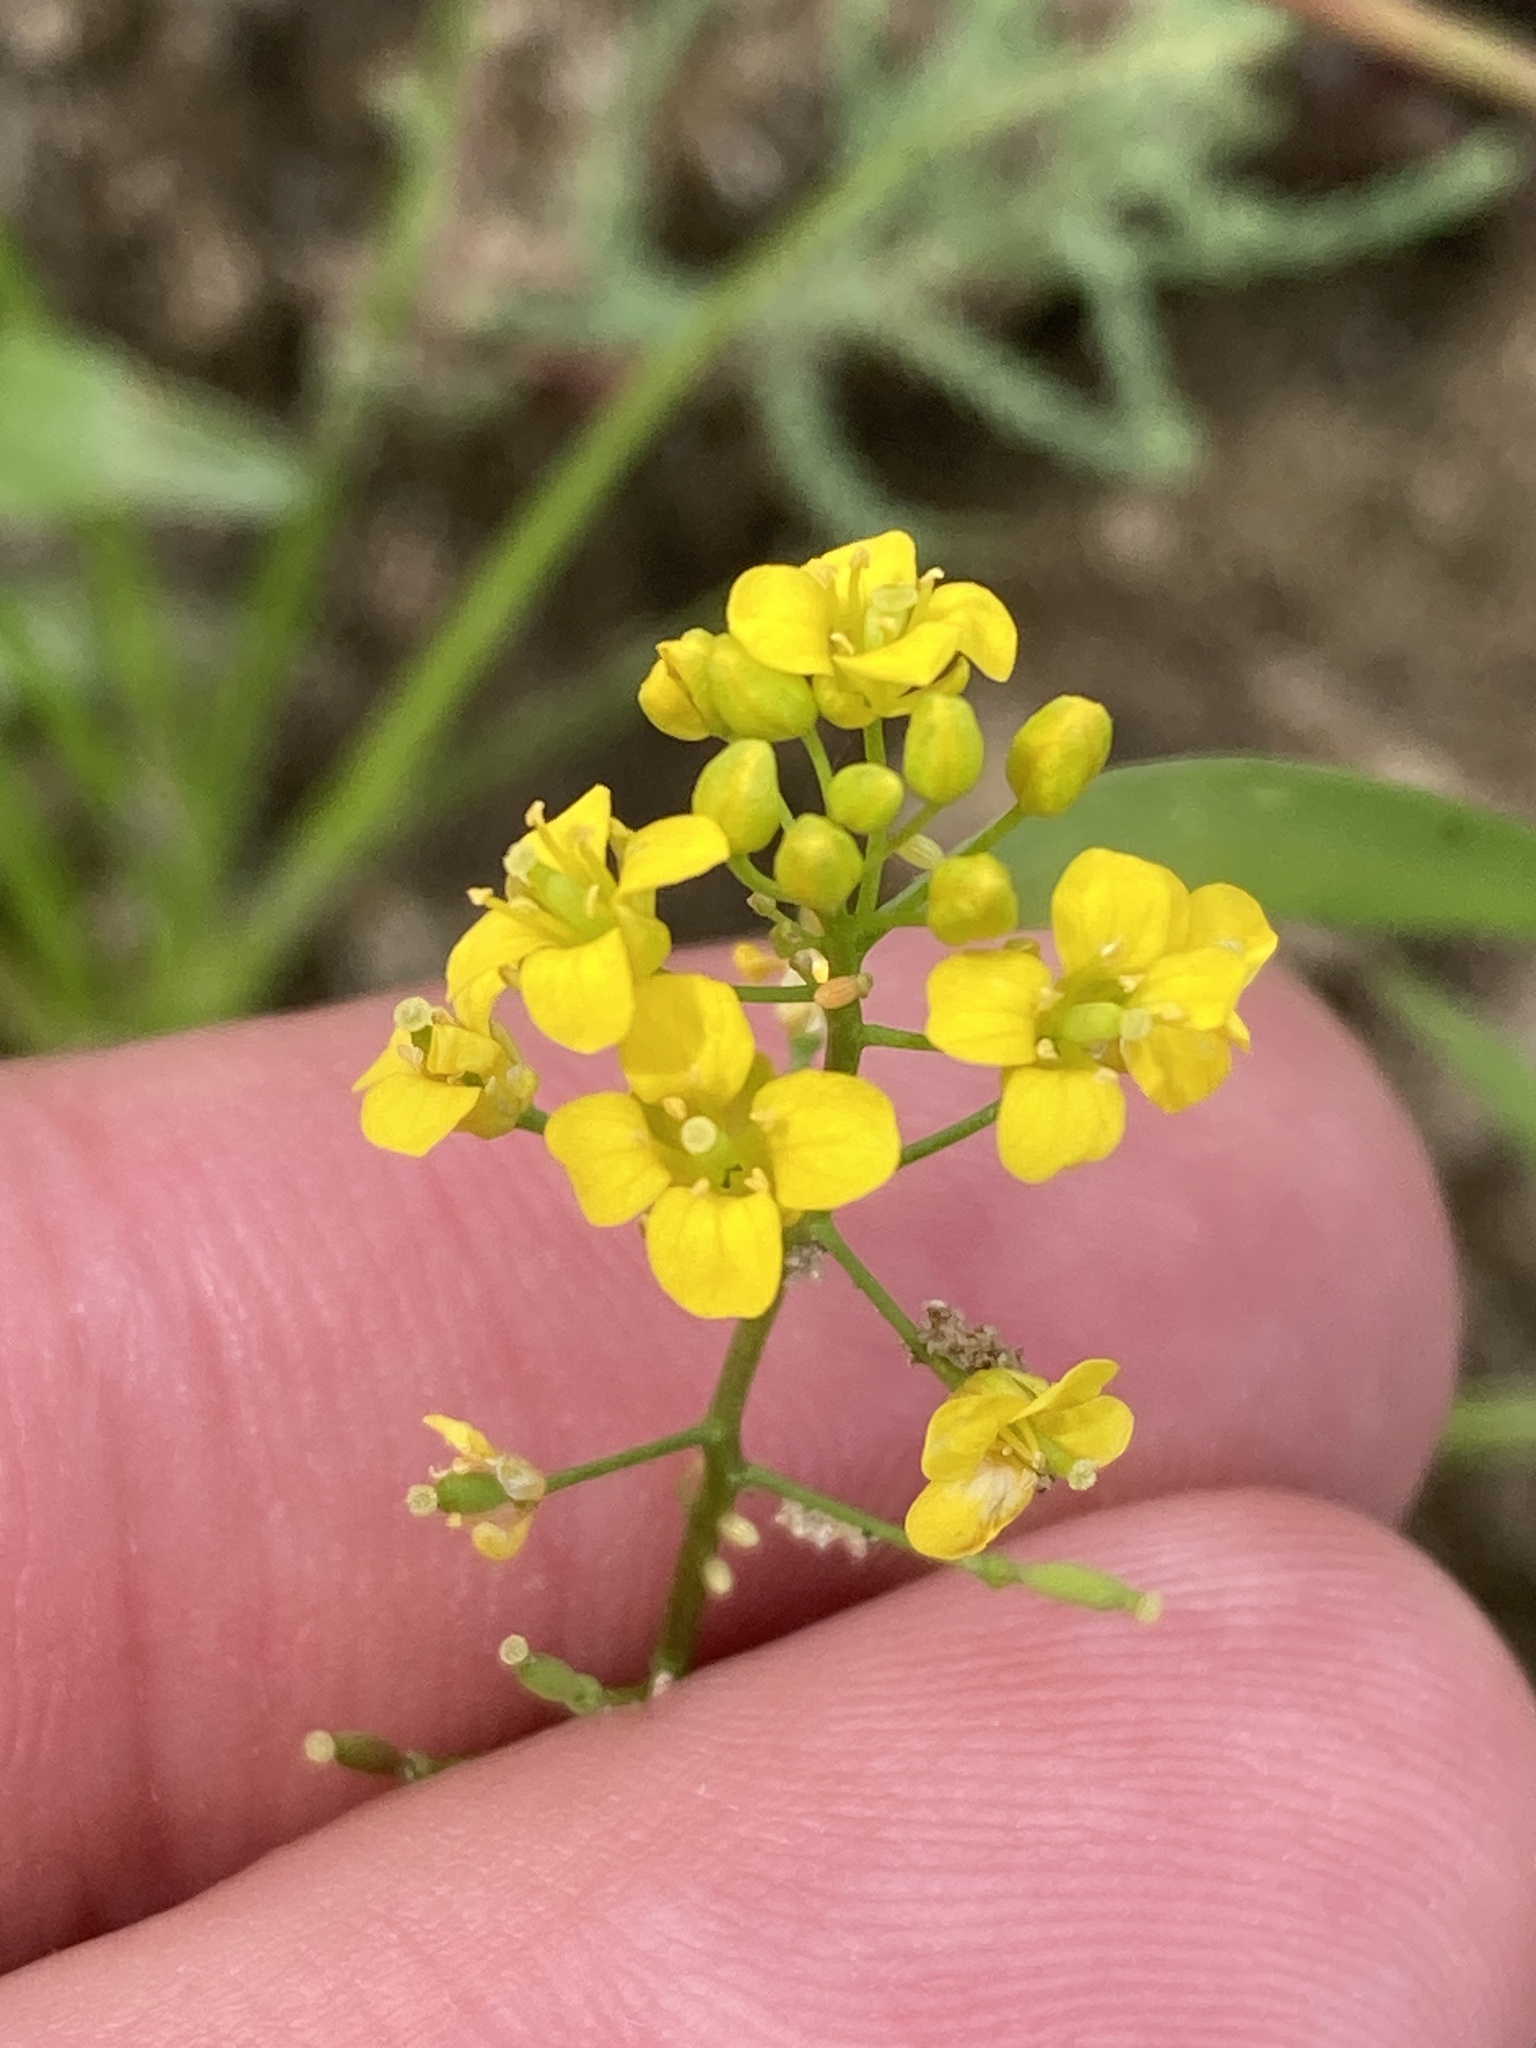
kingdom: Plantae
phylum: Tracheophyta
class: Magnoliopsida
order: Brassicales
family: Brassicaceae
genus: Sisymbrium
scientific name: Sisymbrium loeselii
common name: False london-rocket
